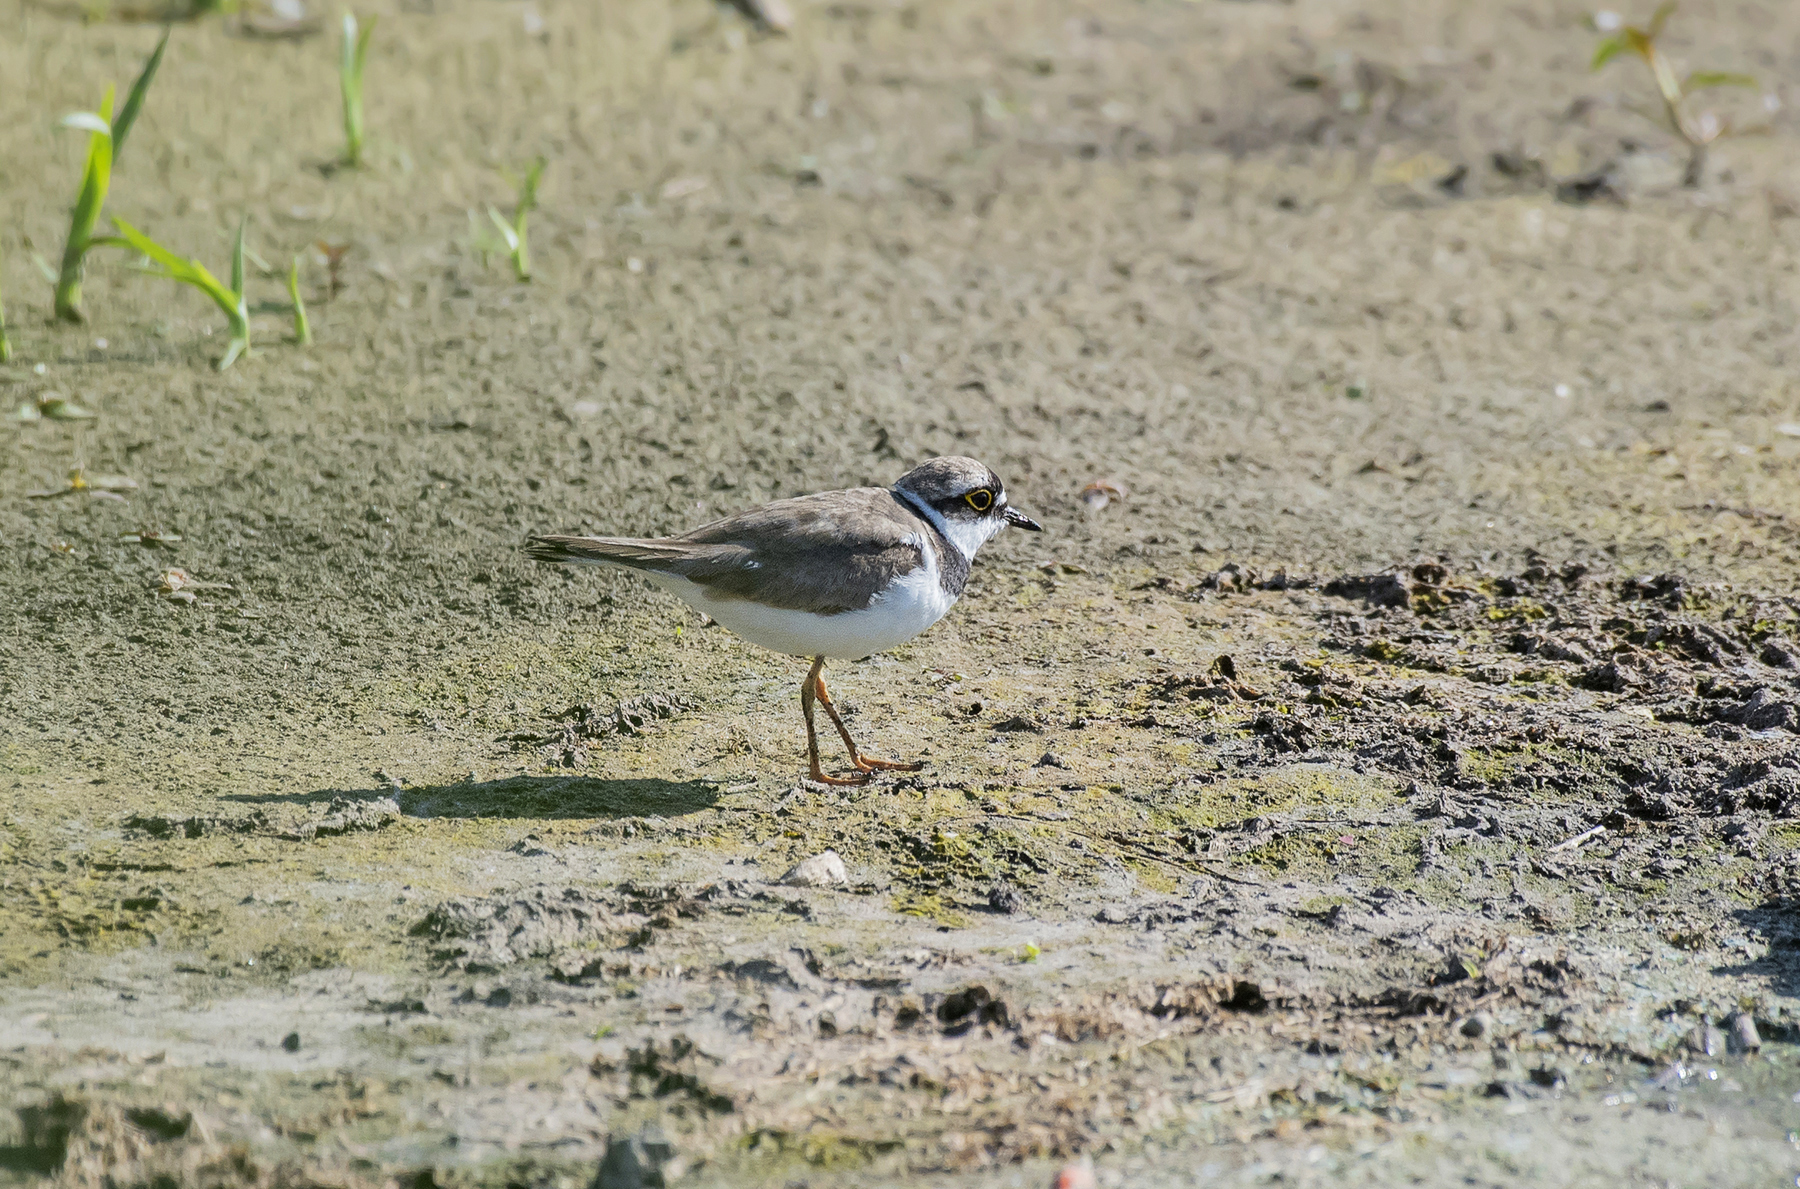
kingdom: Animalia
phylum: Chordata
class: Aves
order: Charadriiformes
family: Charadriidae
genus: Charadrius
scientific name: Charadrius dubius
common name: Little ringed plover
